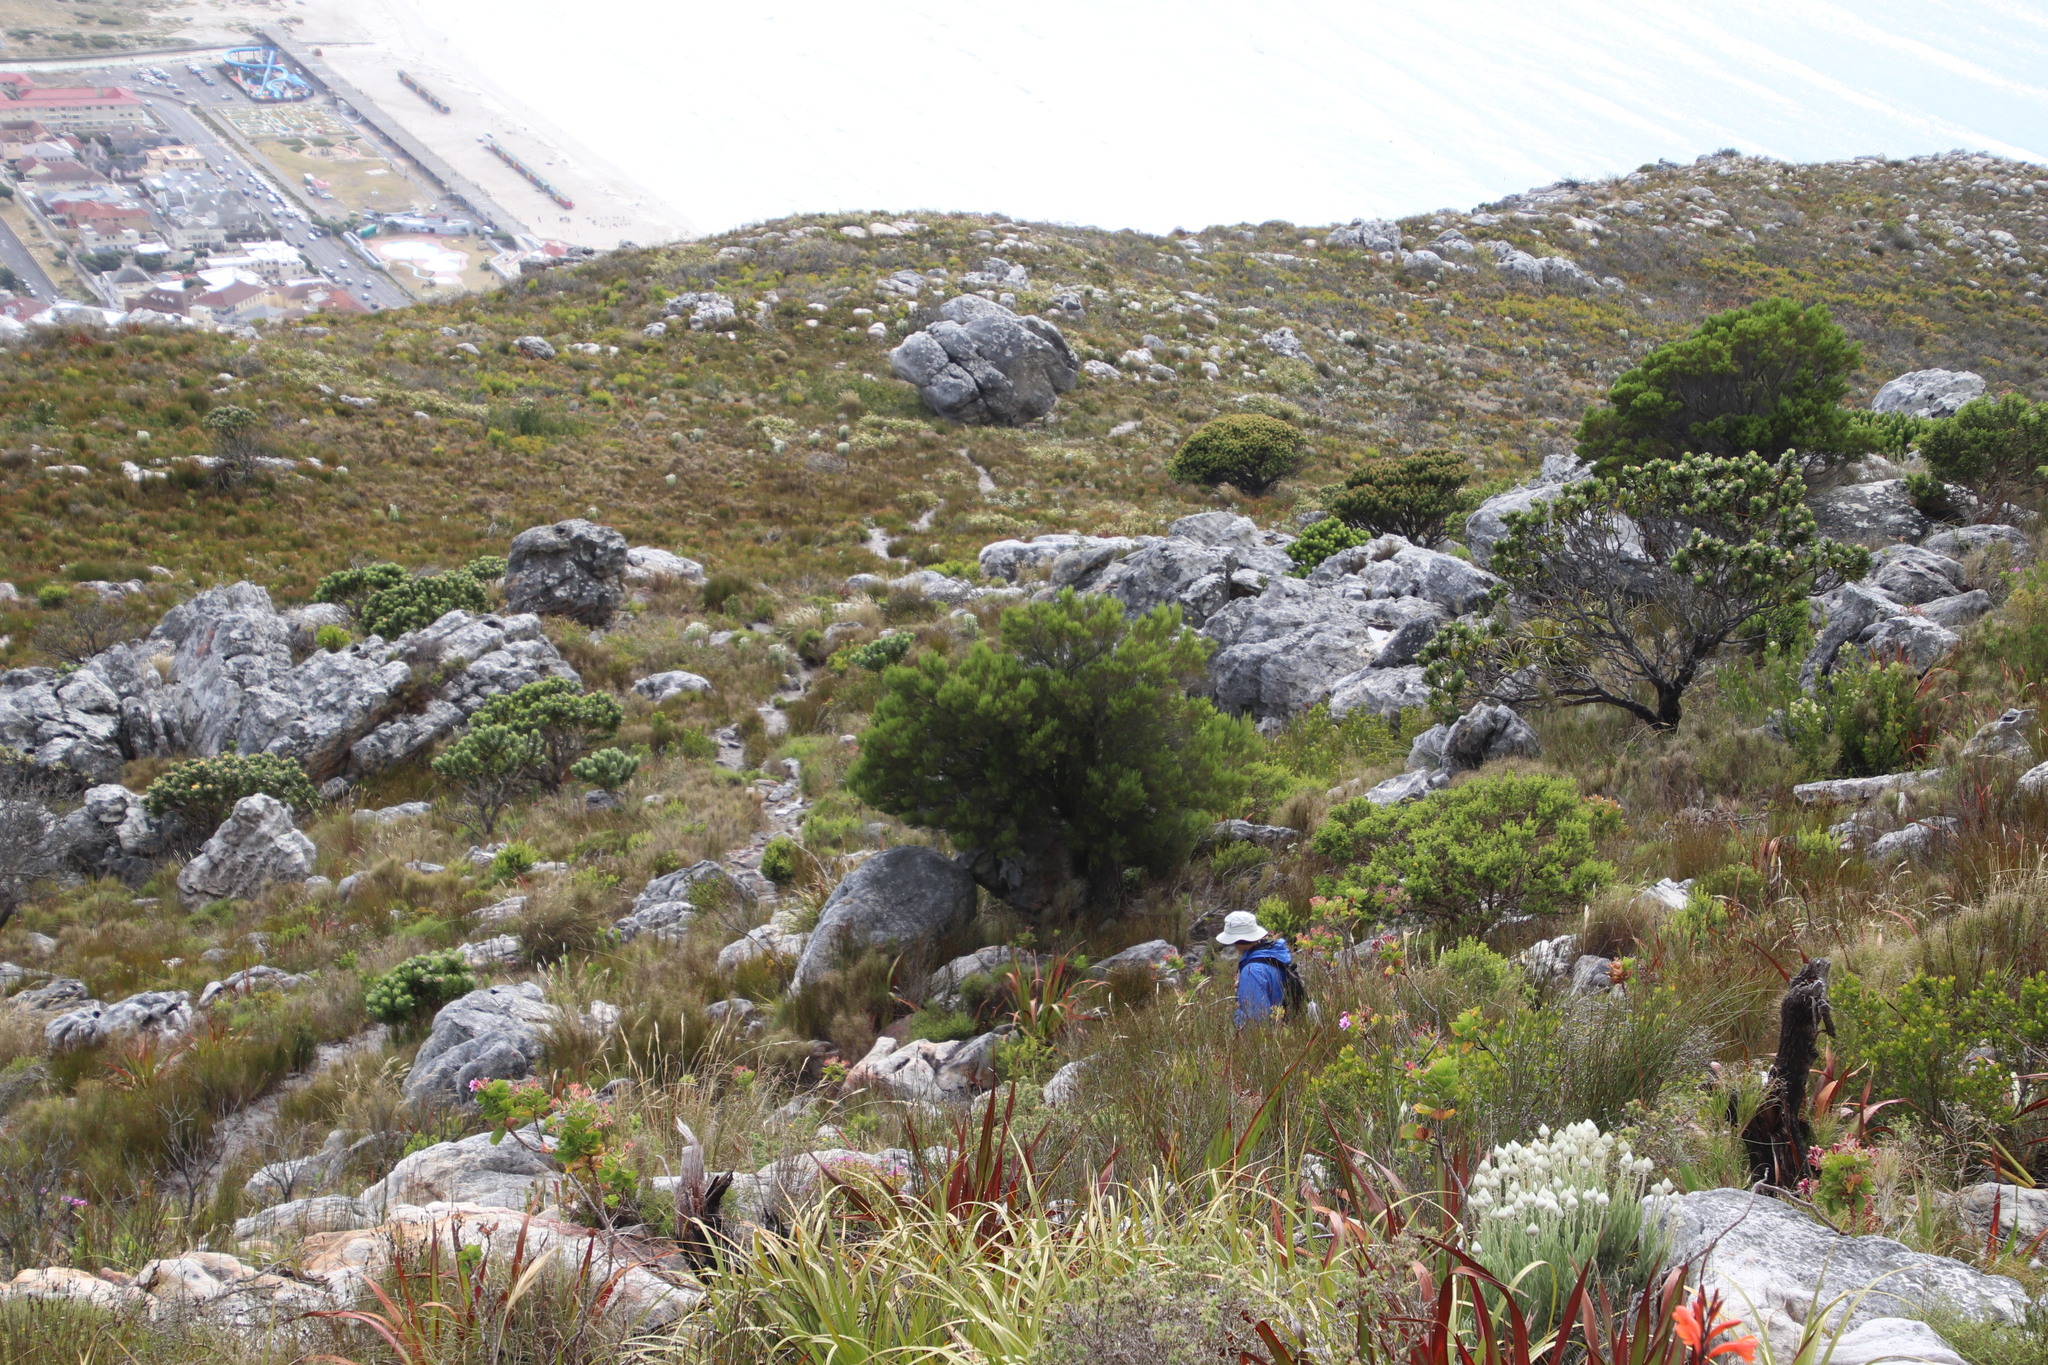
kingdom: Plantae
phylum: Tracheophyta
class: Magnoliopsida
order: Ericales
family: Ericaceae
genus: Erica
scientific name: Erica tristis
